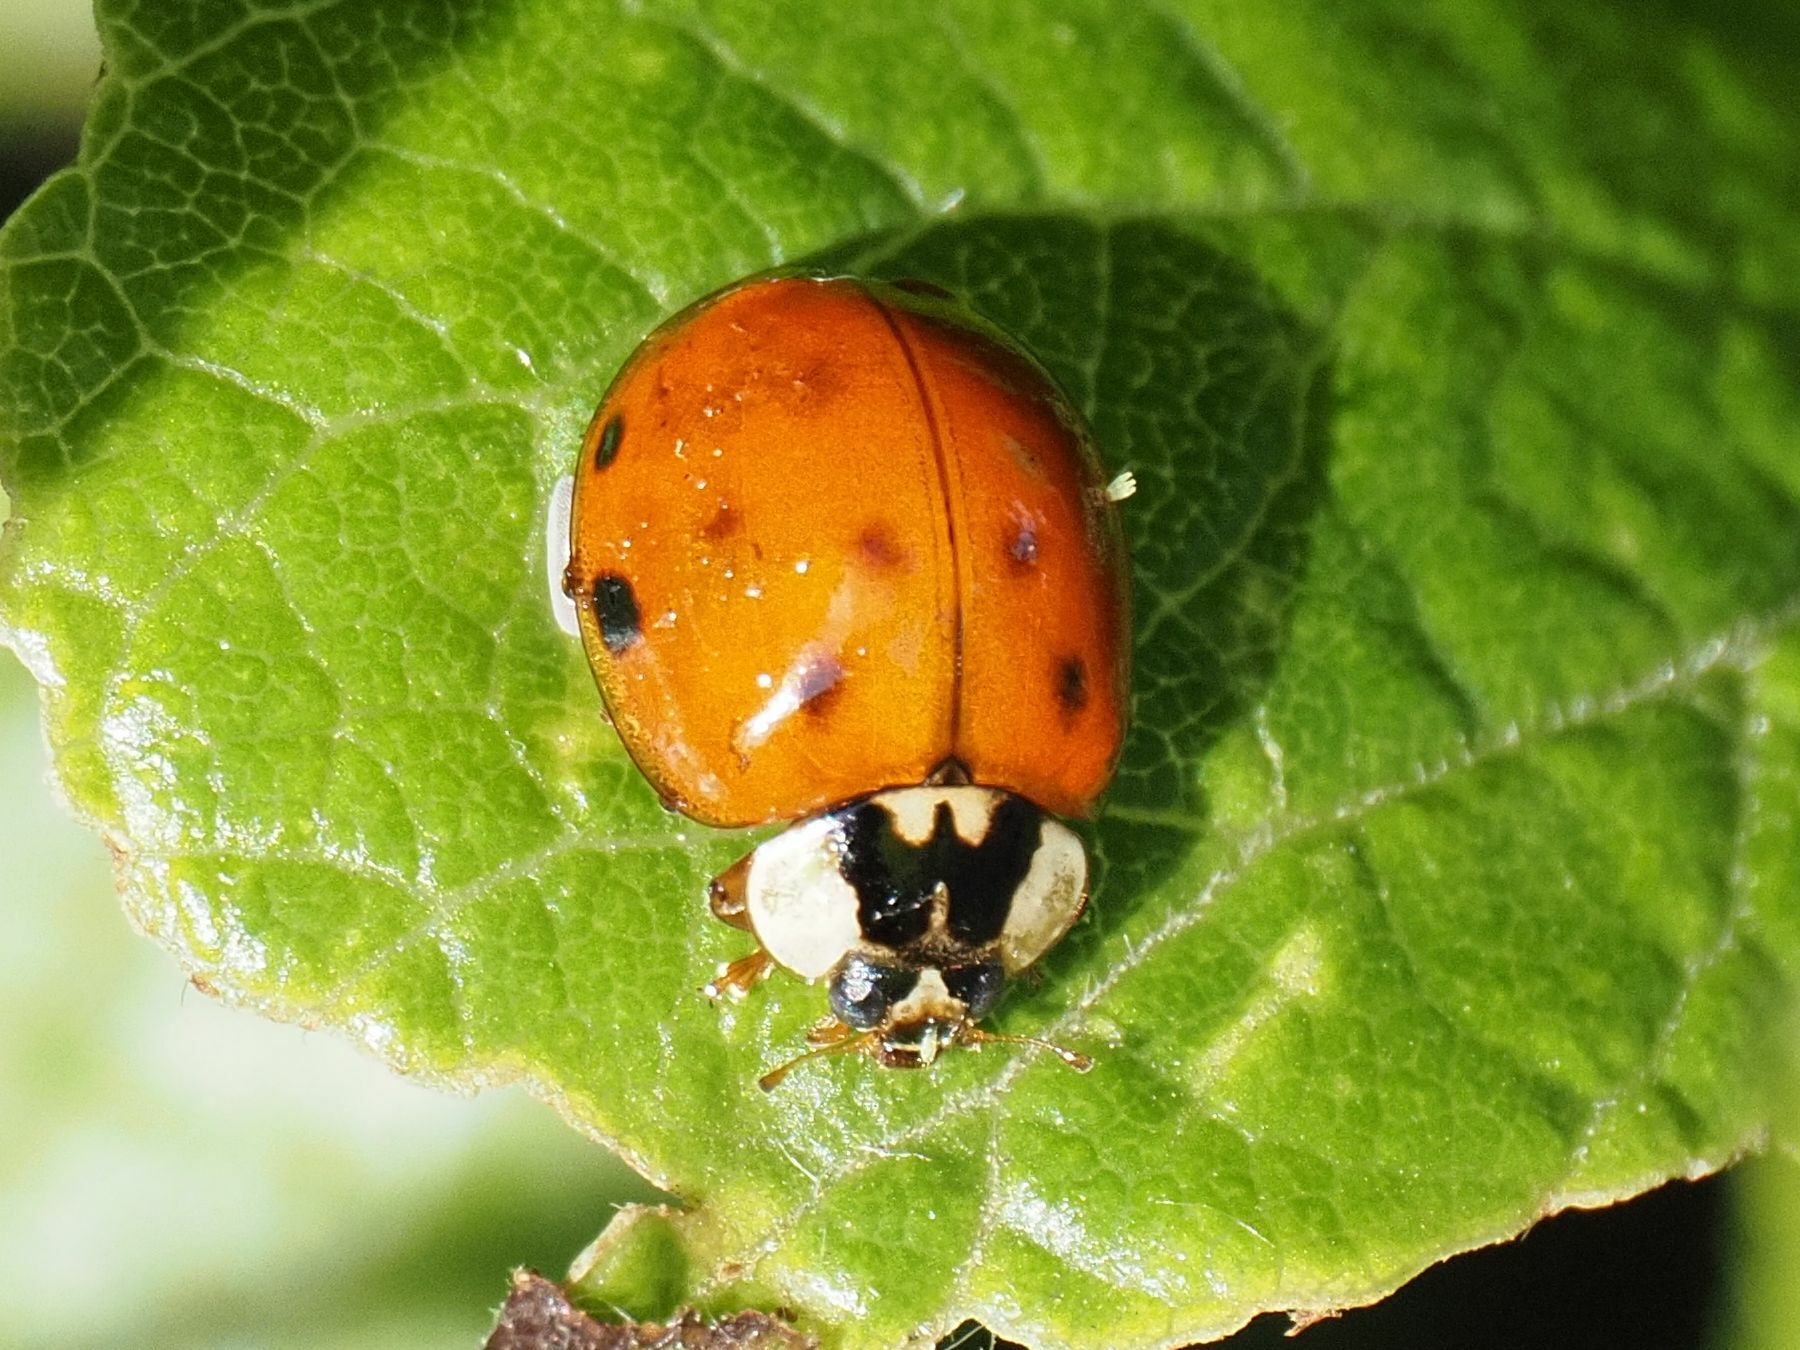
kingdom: Animalia
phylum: Arthropoda
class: Insecta
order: Coleoptera
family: Coccinellidae
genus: Harmonia
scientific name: Harmonia axyridis
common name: Harlequin ladybird
